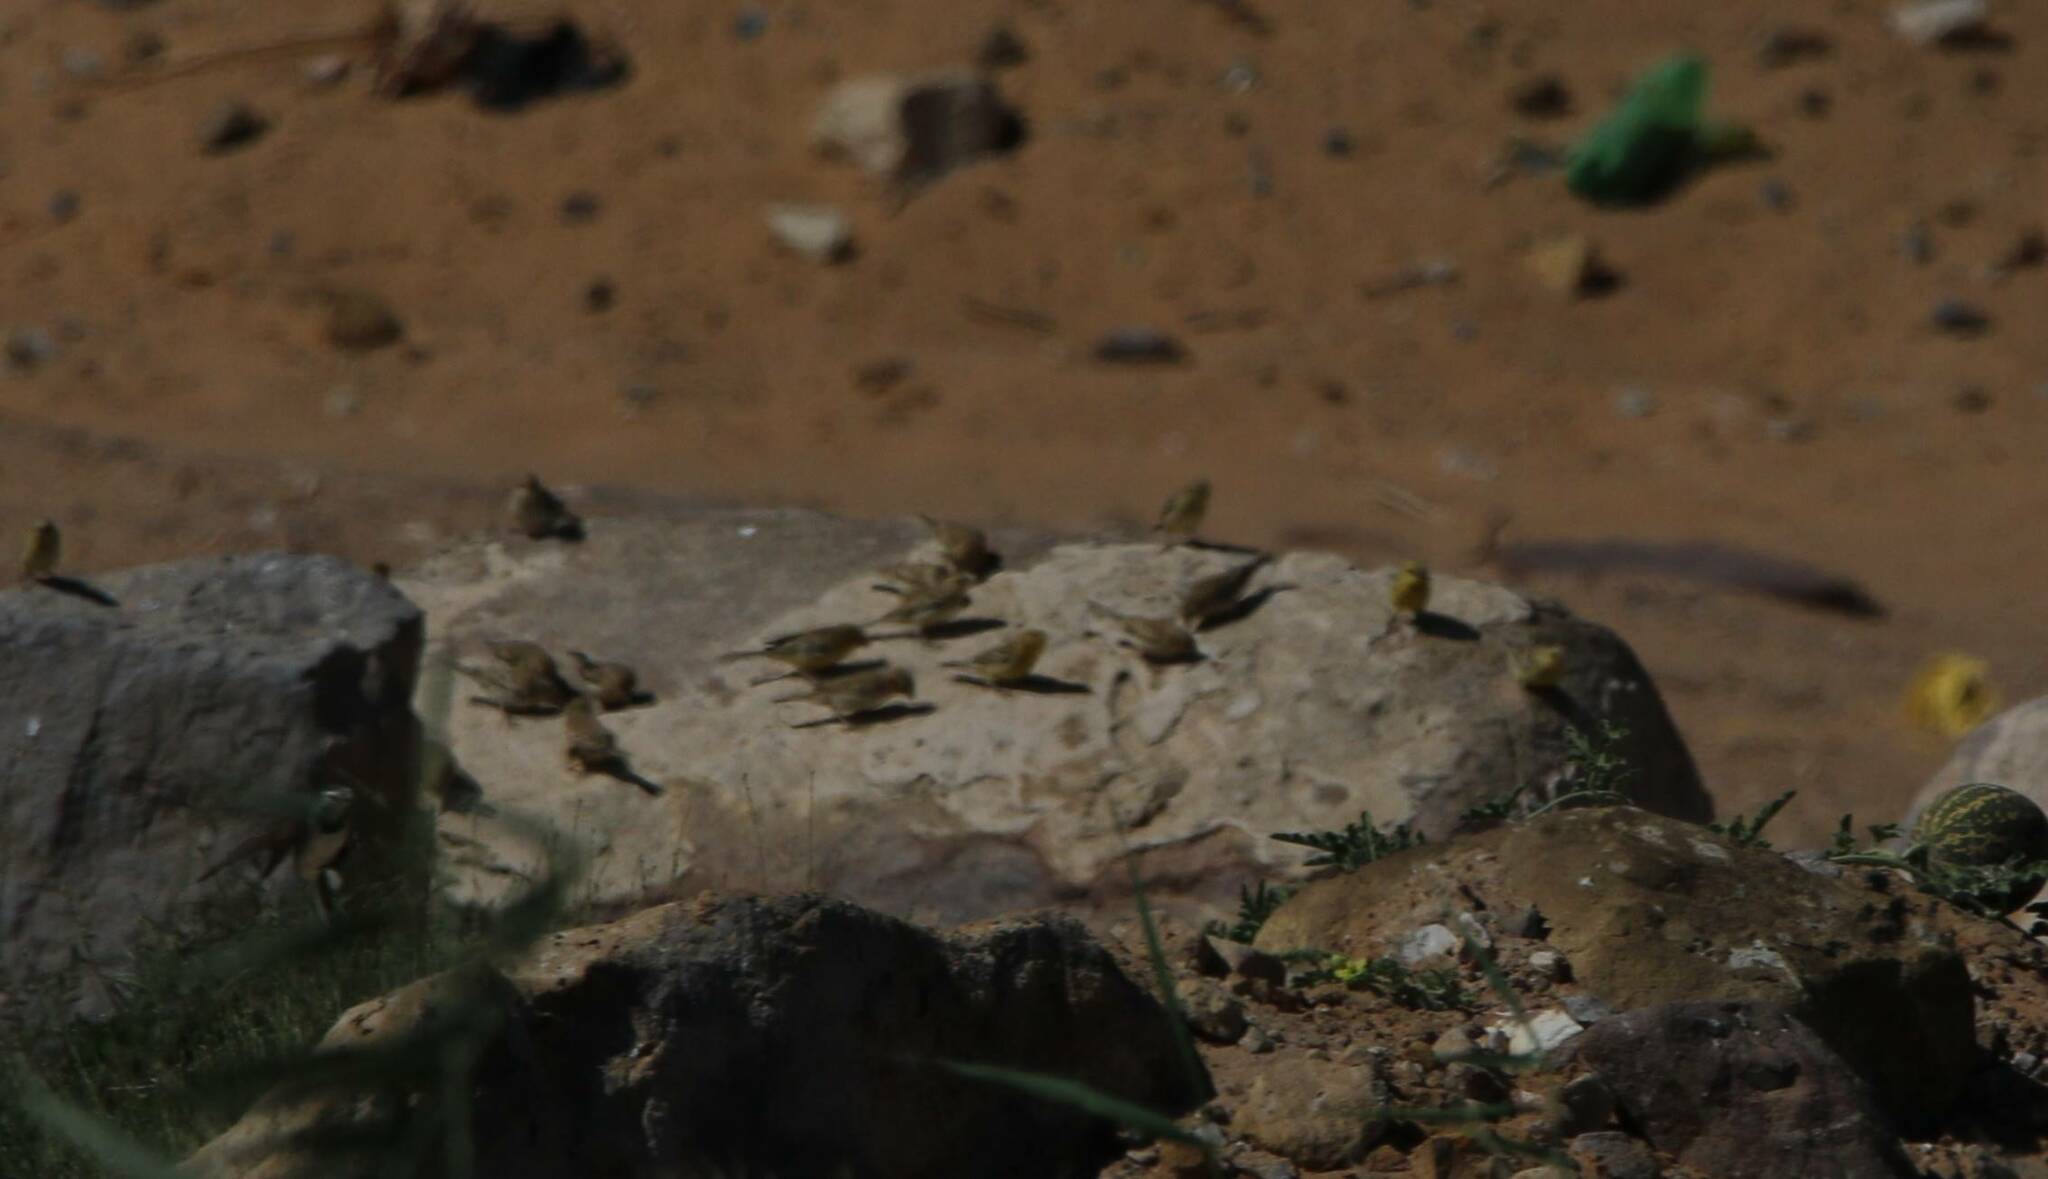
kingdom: Animalia
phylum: Chordata
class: Aves
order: Passeriformes
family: Passeridae
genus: Passer
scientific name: Passer luteus
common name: Sudan golden sparrow
